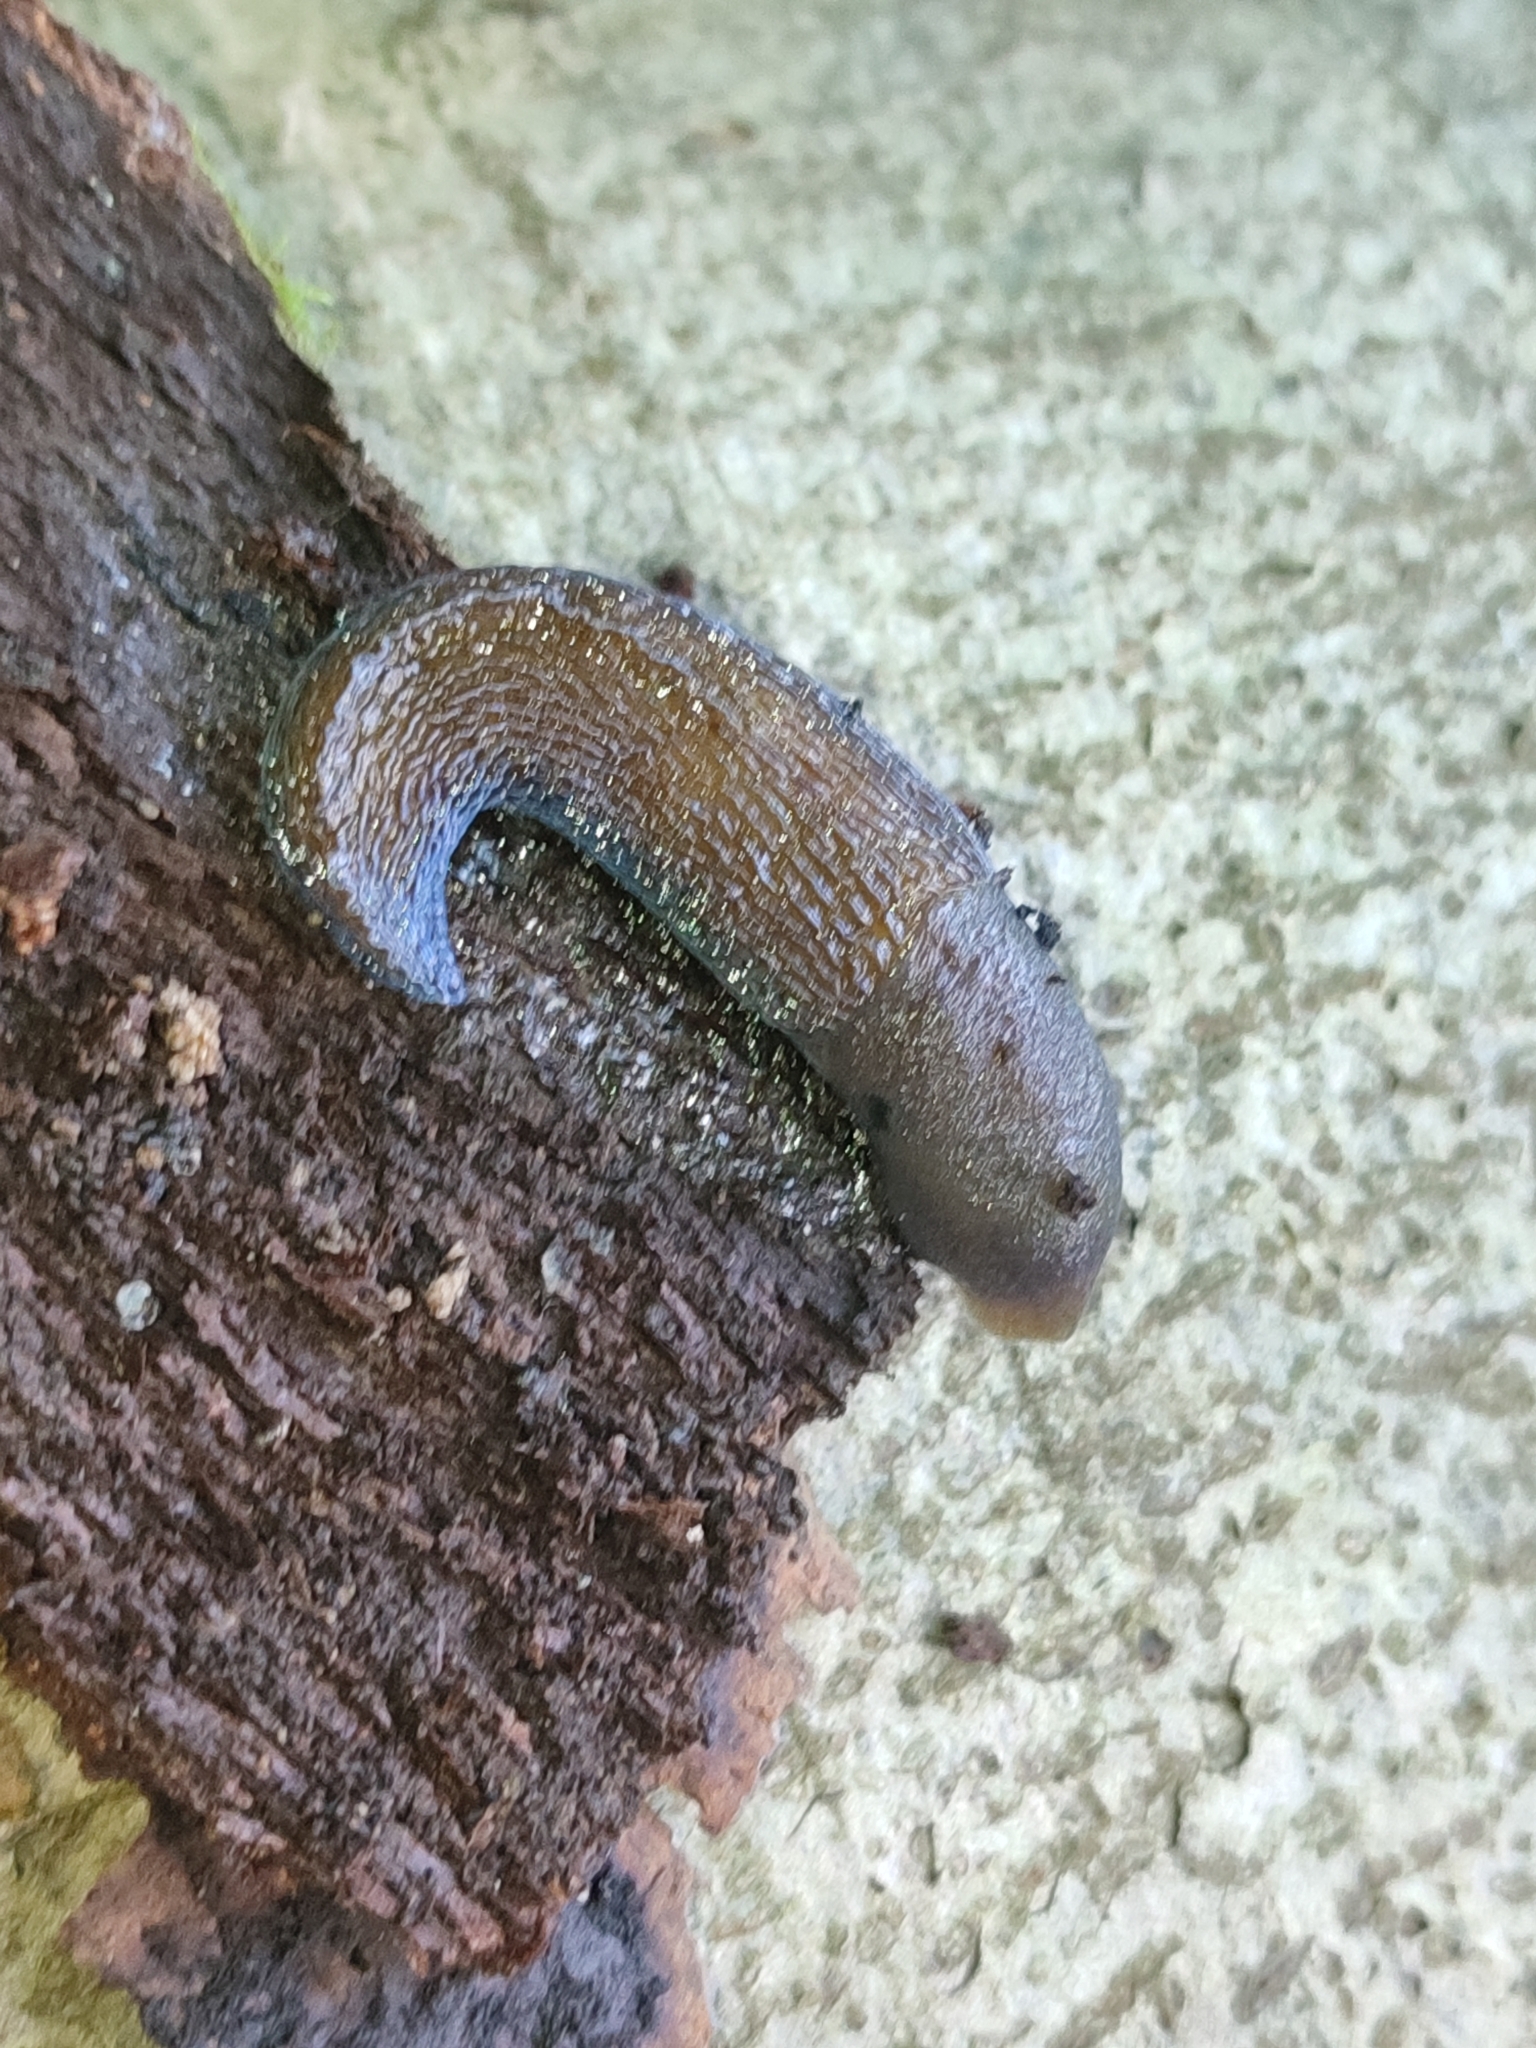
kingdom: Animalia
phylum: Mollusca
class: Gastropoda
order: Stylommatophora
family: Limacidae
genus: Bielzia
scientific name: Bielzia coerulans
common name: Carpathian blue slug
